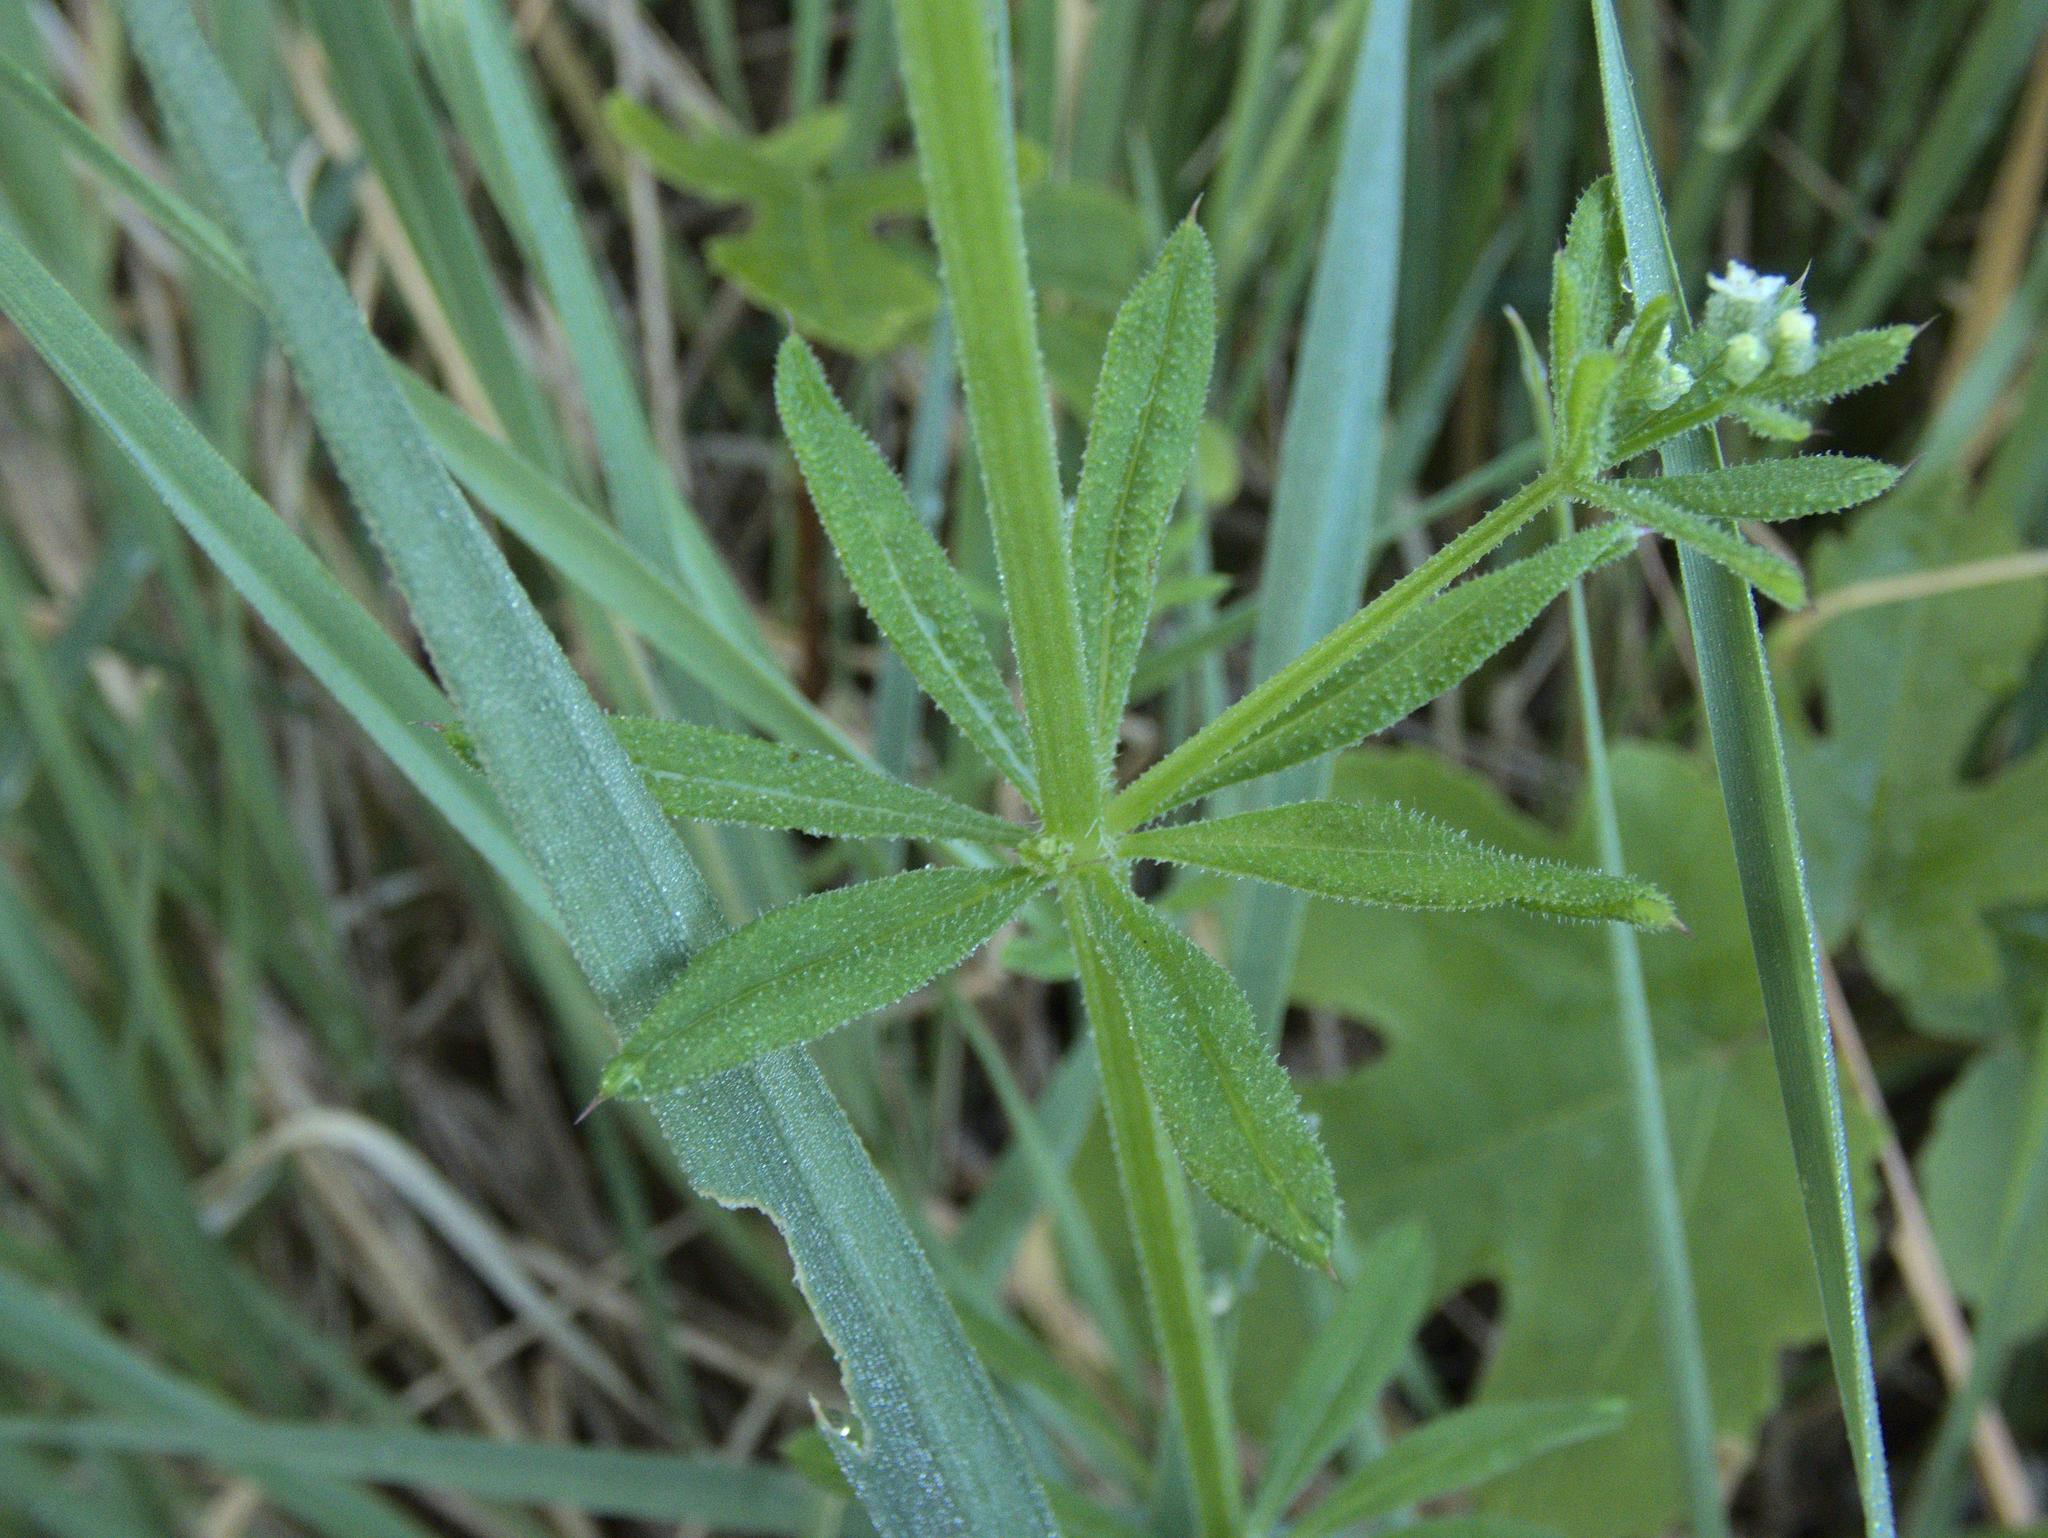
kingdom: Plantae
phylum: Tracheophyta
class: Magnoliopsida
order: Gentianales
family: Rubiaceae
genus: Galium
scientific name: Galium aparine
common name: Cleavers
